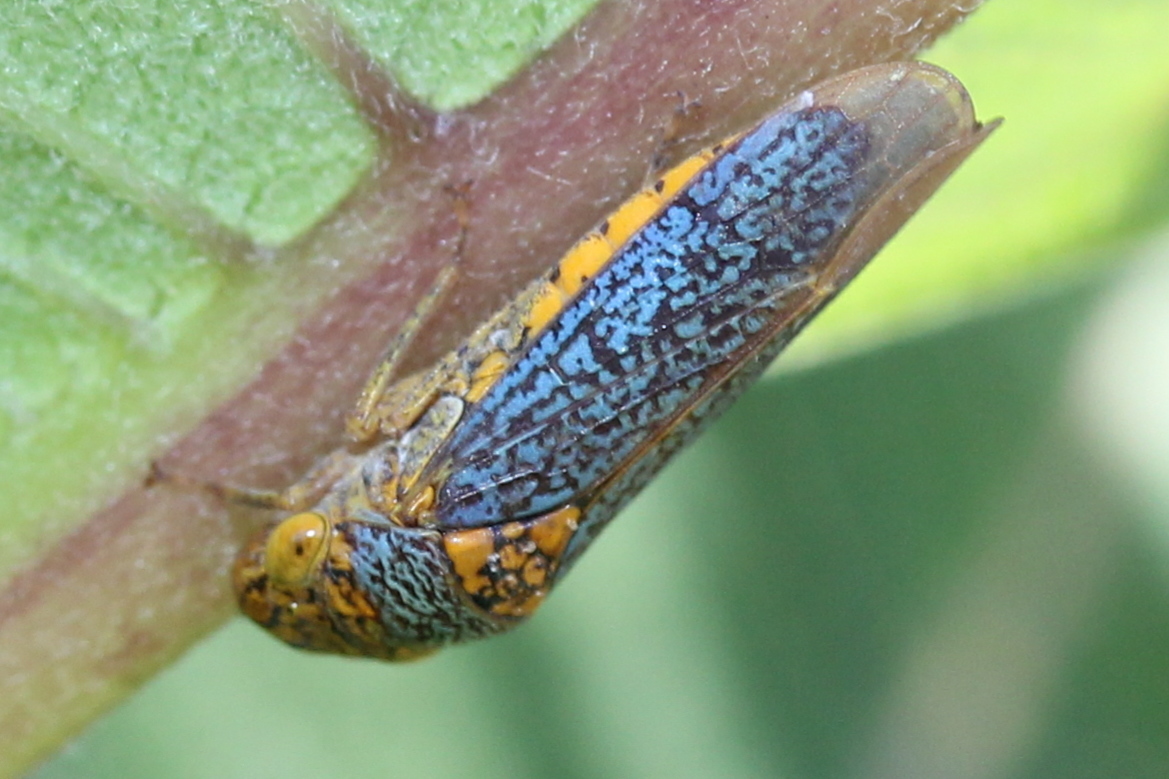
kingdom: Animalia
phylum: Arthropoda
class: Insecta
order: Hemiptera
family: Cicadellidae
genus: Oncometopia
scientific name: Oncometopia orbona
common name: Broad-headed sharpshooter
